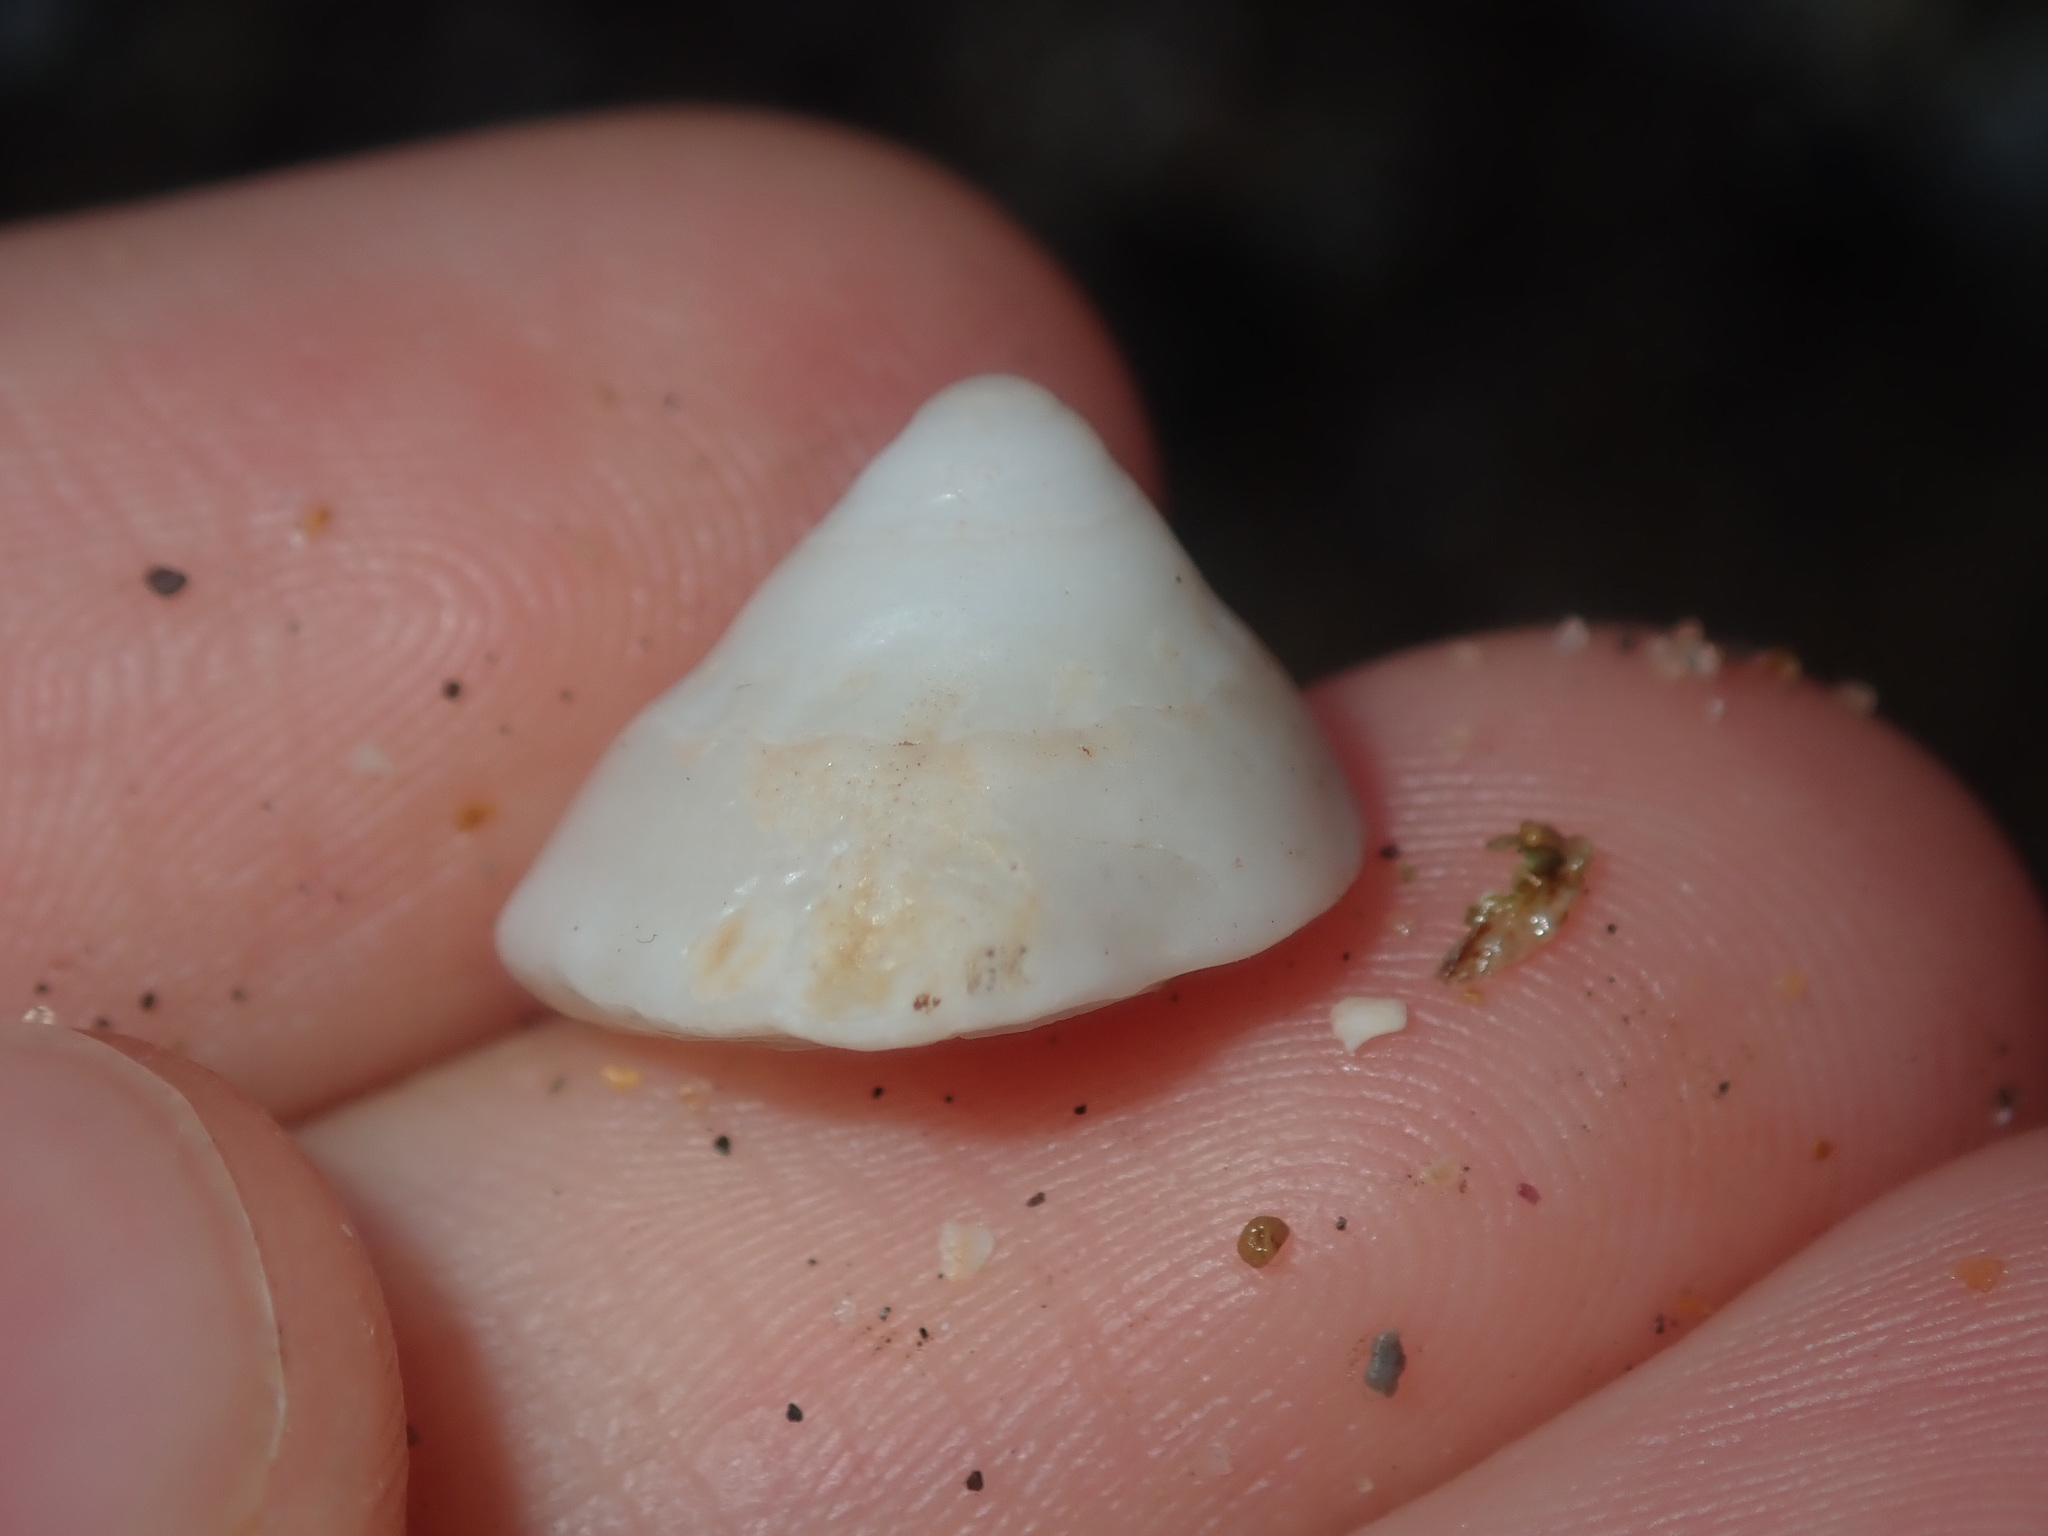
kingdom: Animalia
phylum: Mollusca
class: Gastropoda
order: Trochida
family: Turbinidae
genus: Bellastraea
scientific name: Bellastraea squamifera
